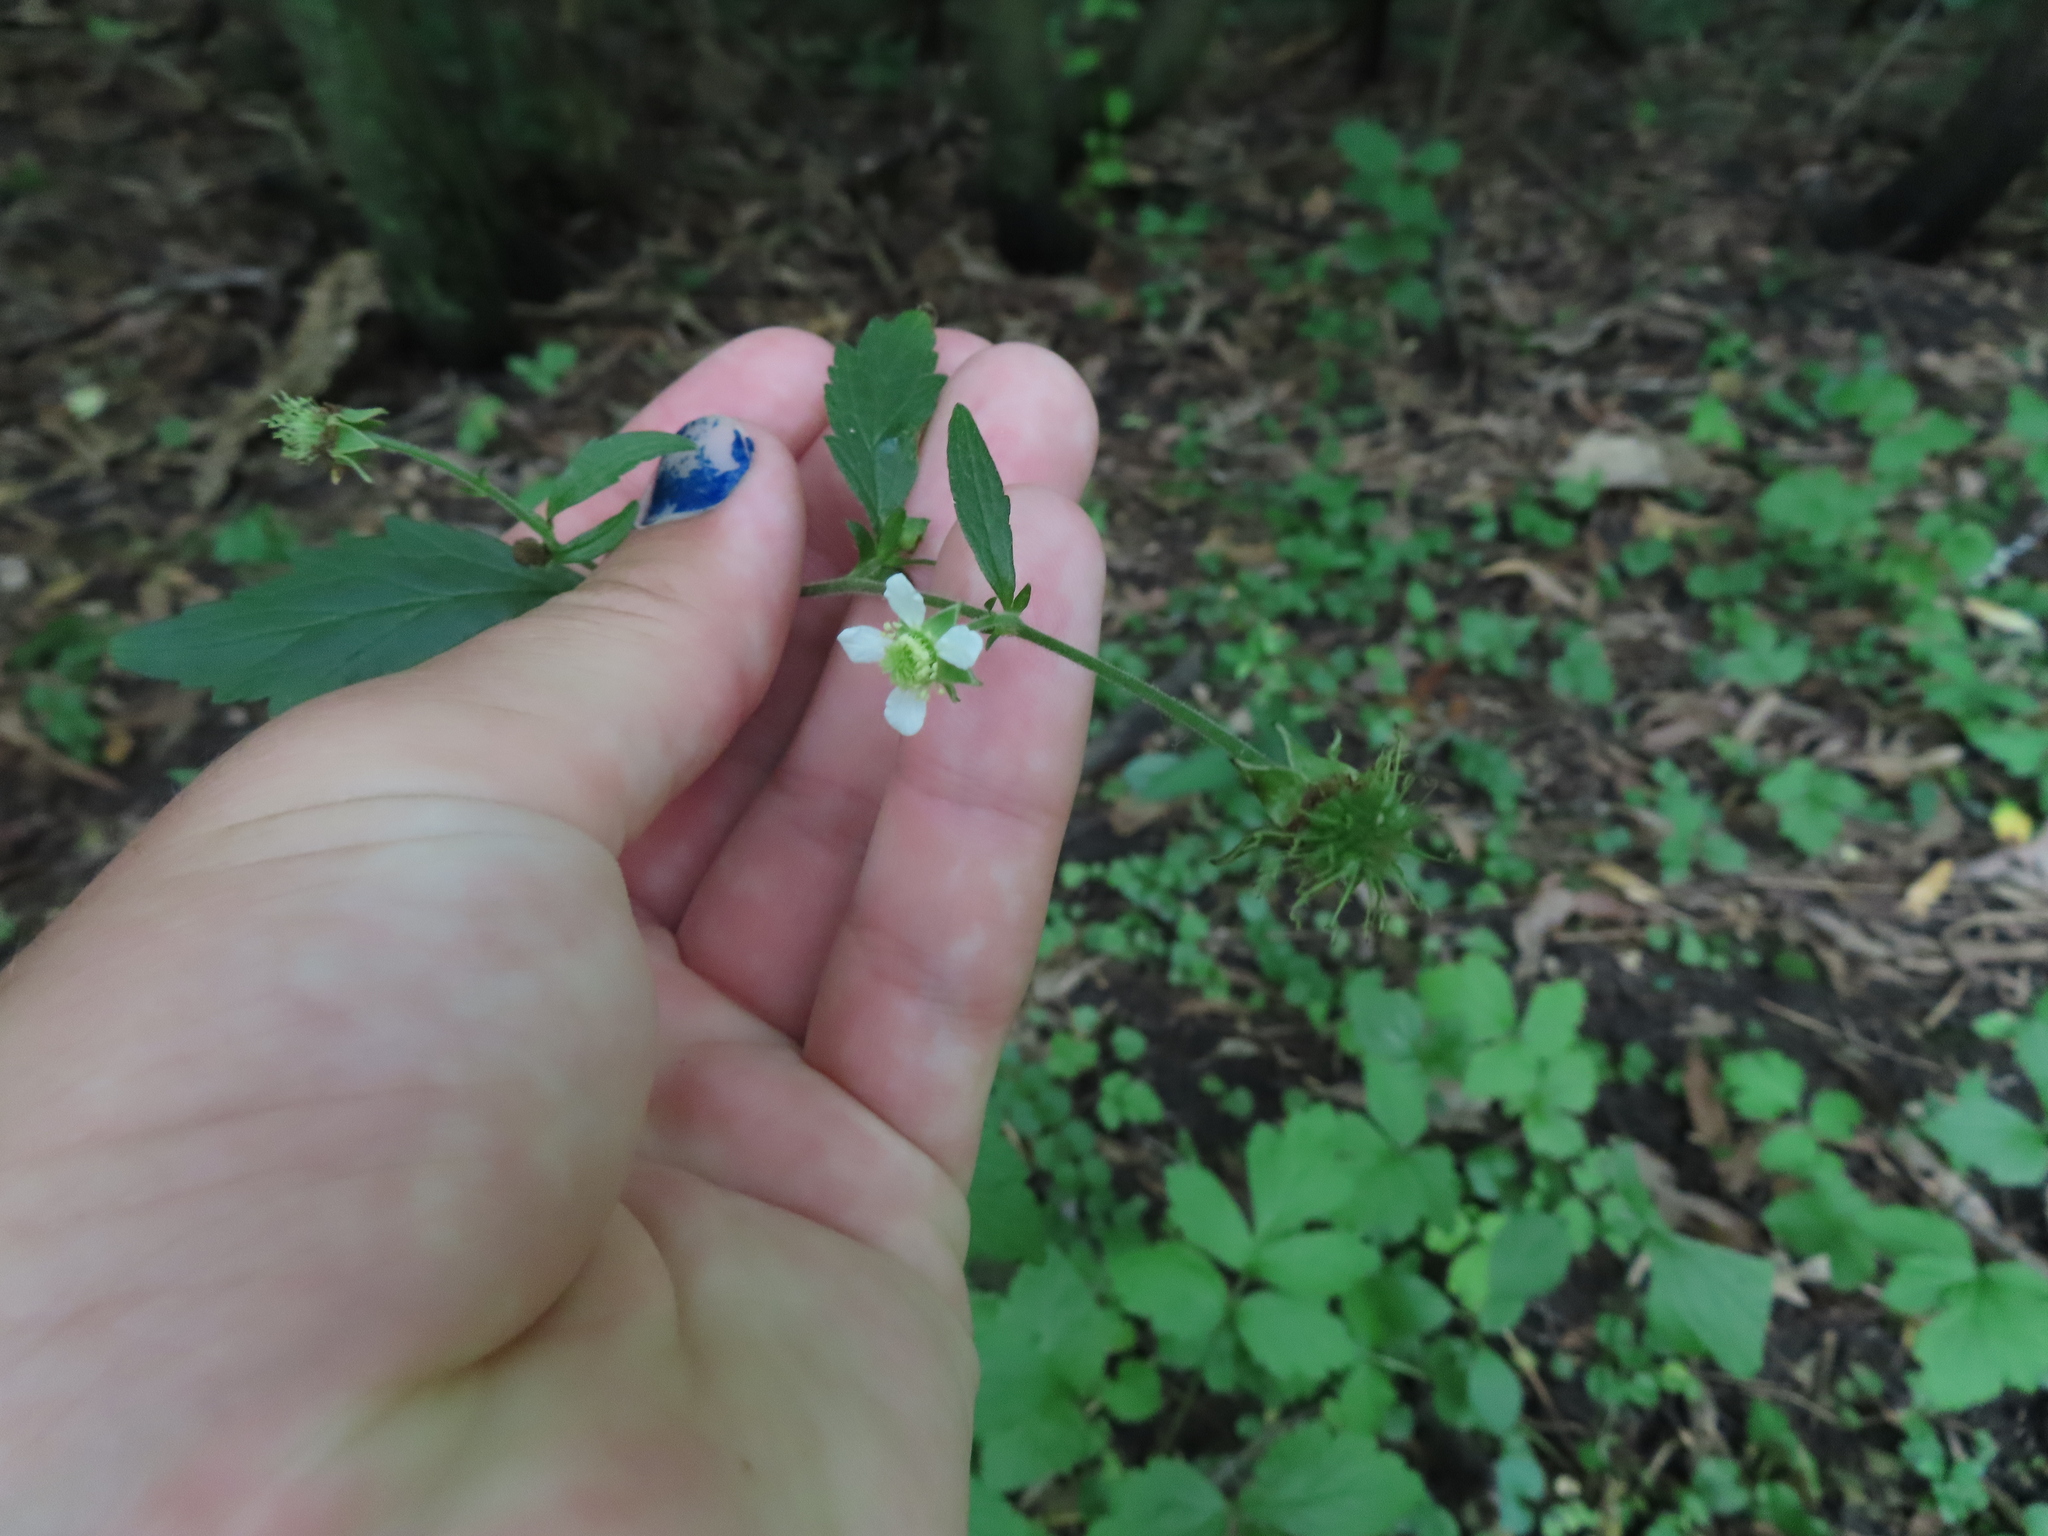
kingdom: Plantae
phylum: Tracheophyta
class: Magnoliopsida
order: Rosales
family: Rosaceae
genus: Geum
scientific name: Geum canadense
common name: White avens
